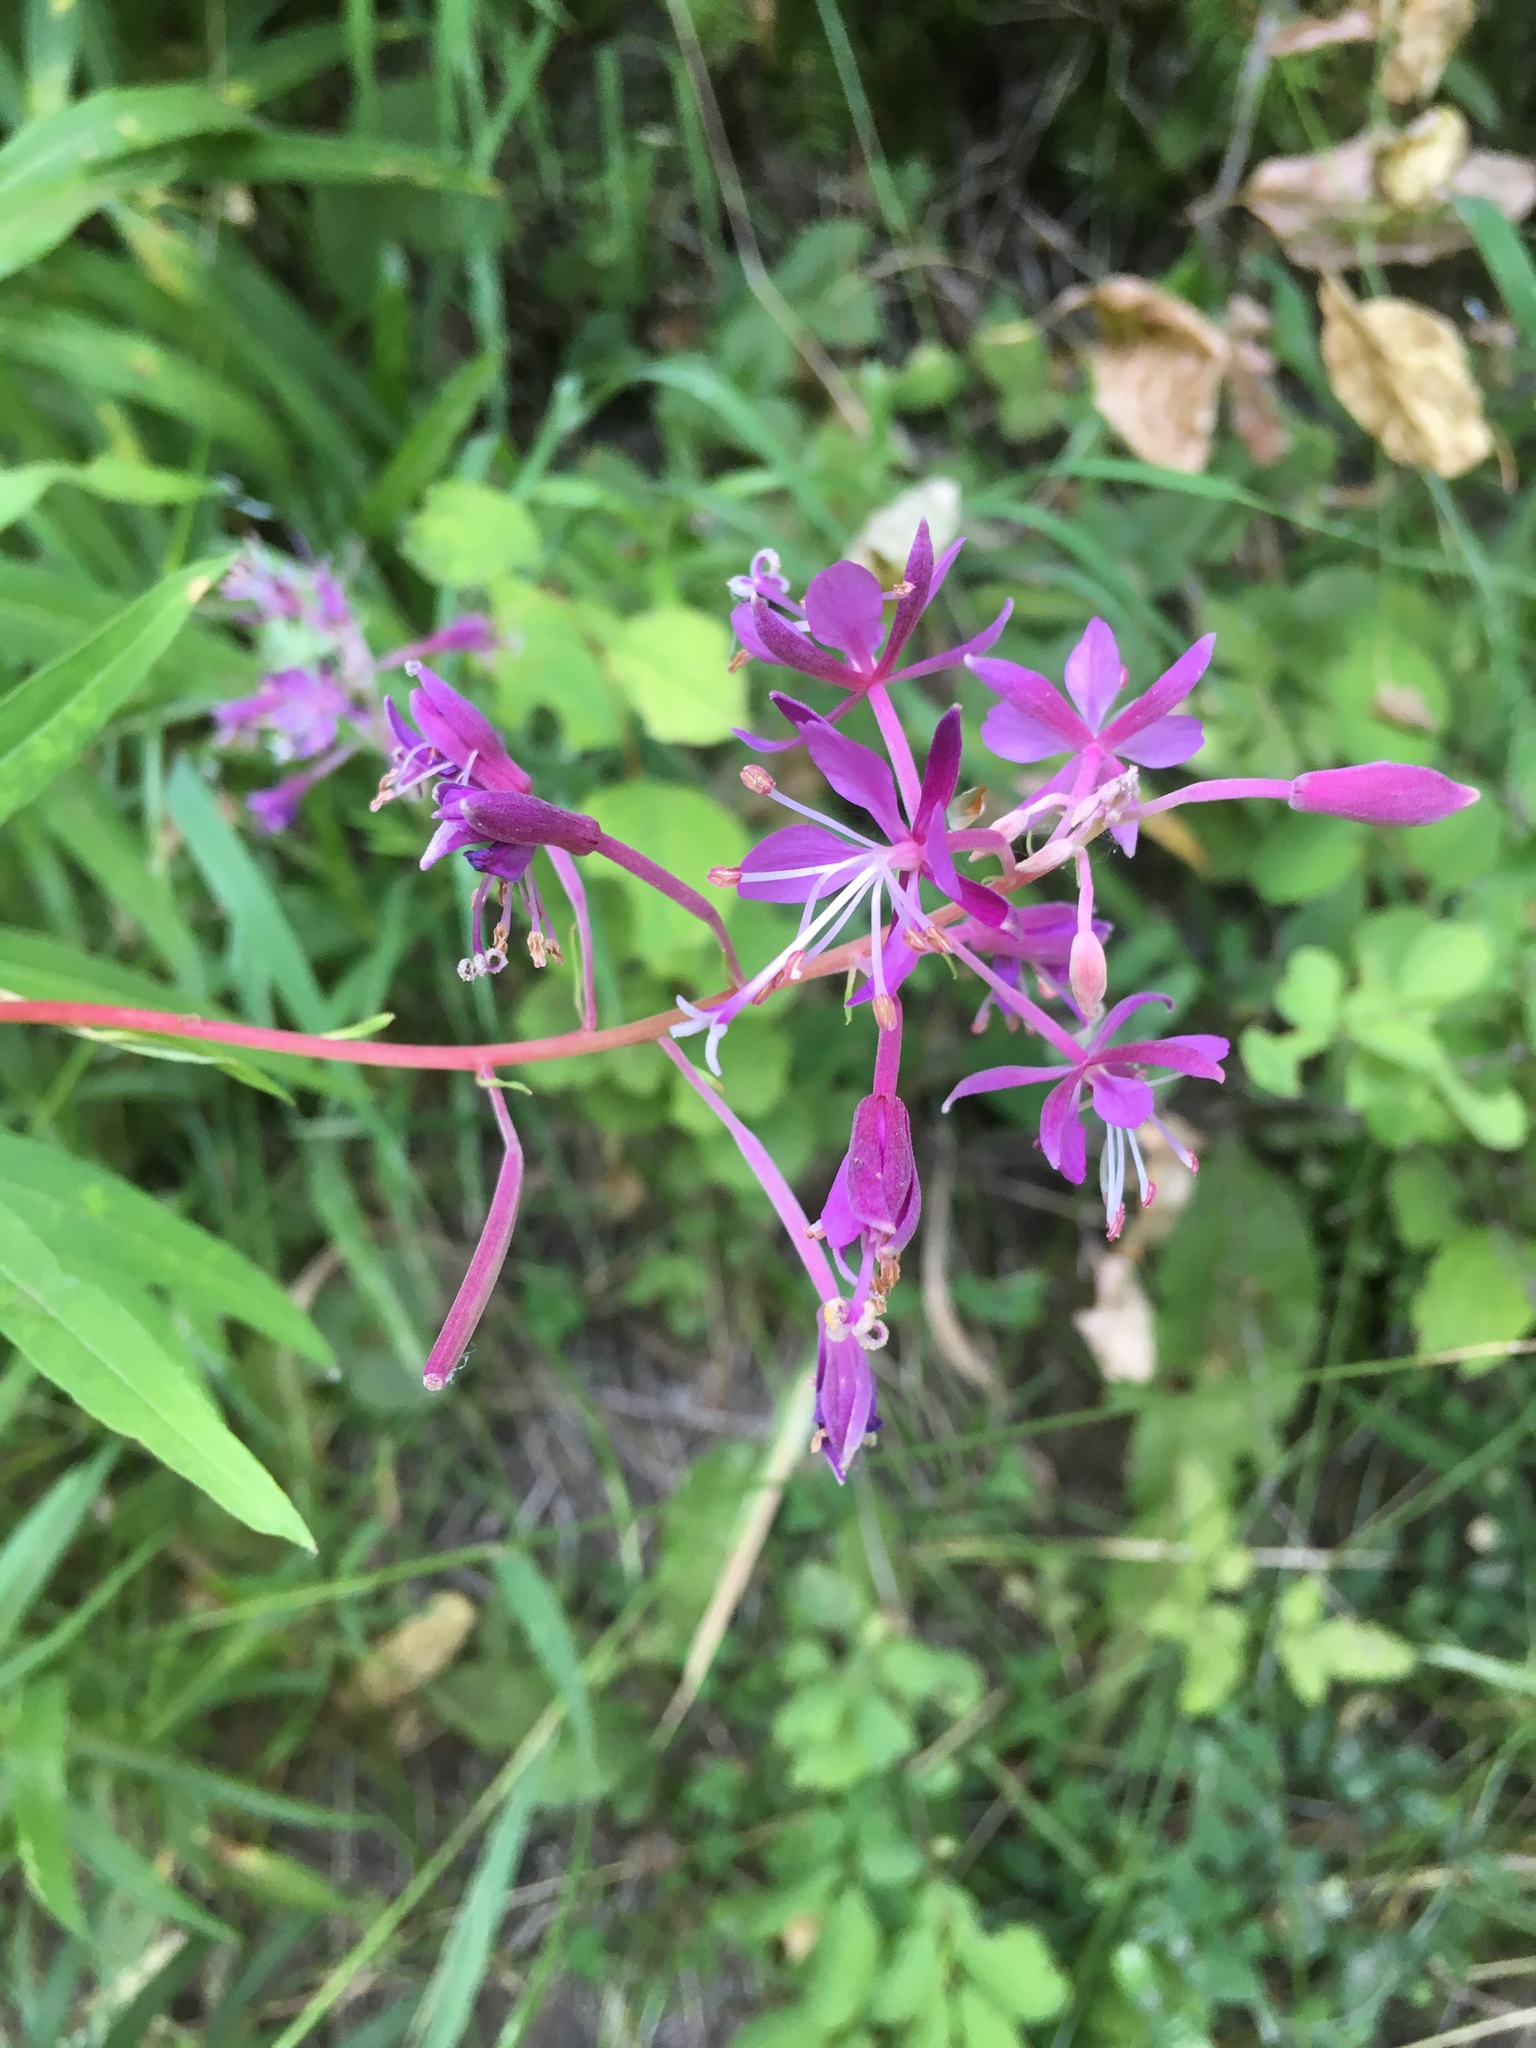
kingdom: Plantae
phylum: Tracheophyta
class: Magnoliopsida
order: Myrtales
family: Onagraceae
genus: Chamaenerion
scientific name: Chamaenerion angustifolium
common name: Fireweed
